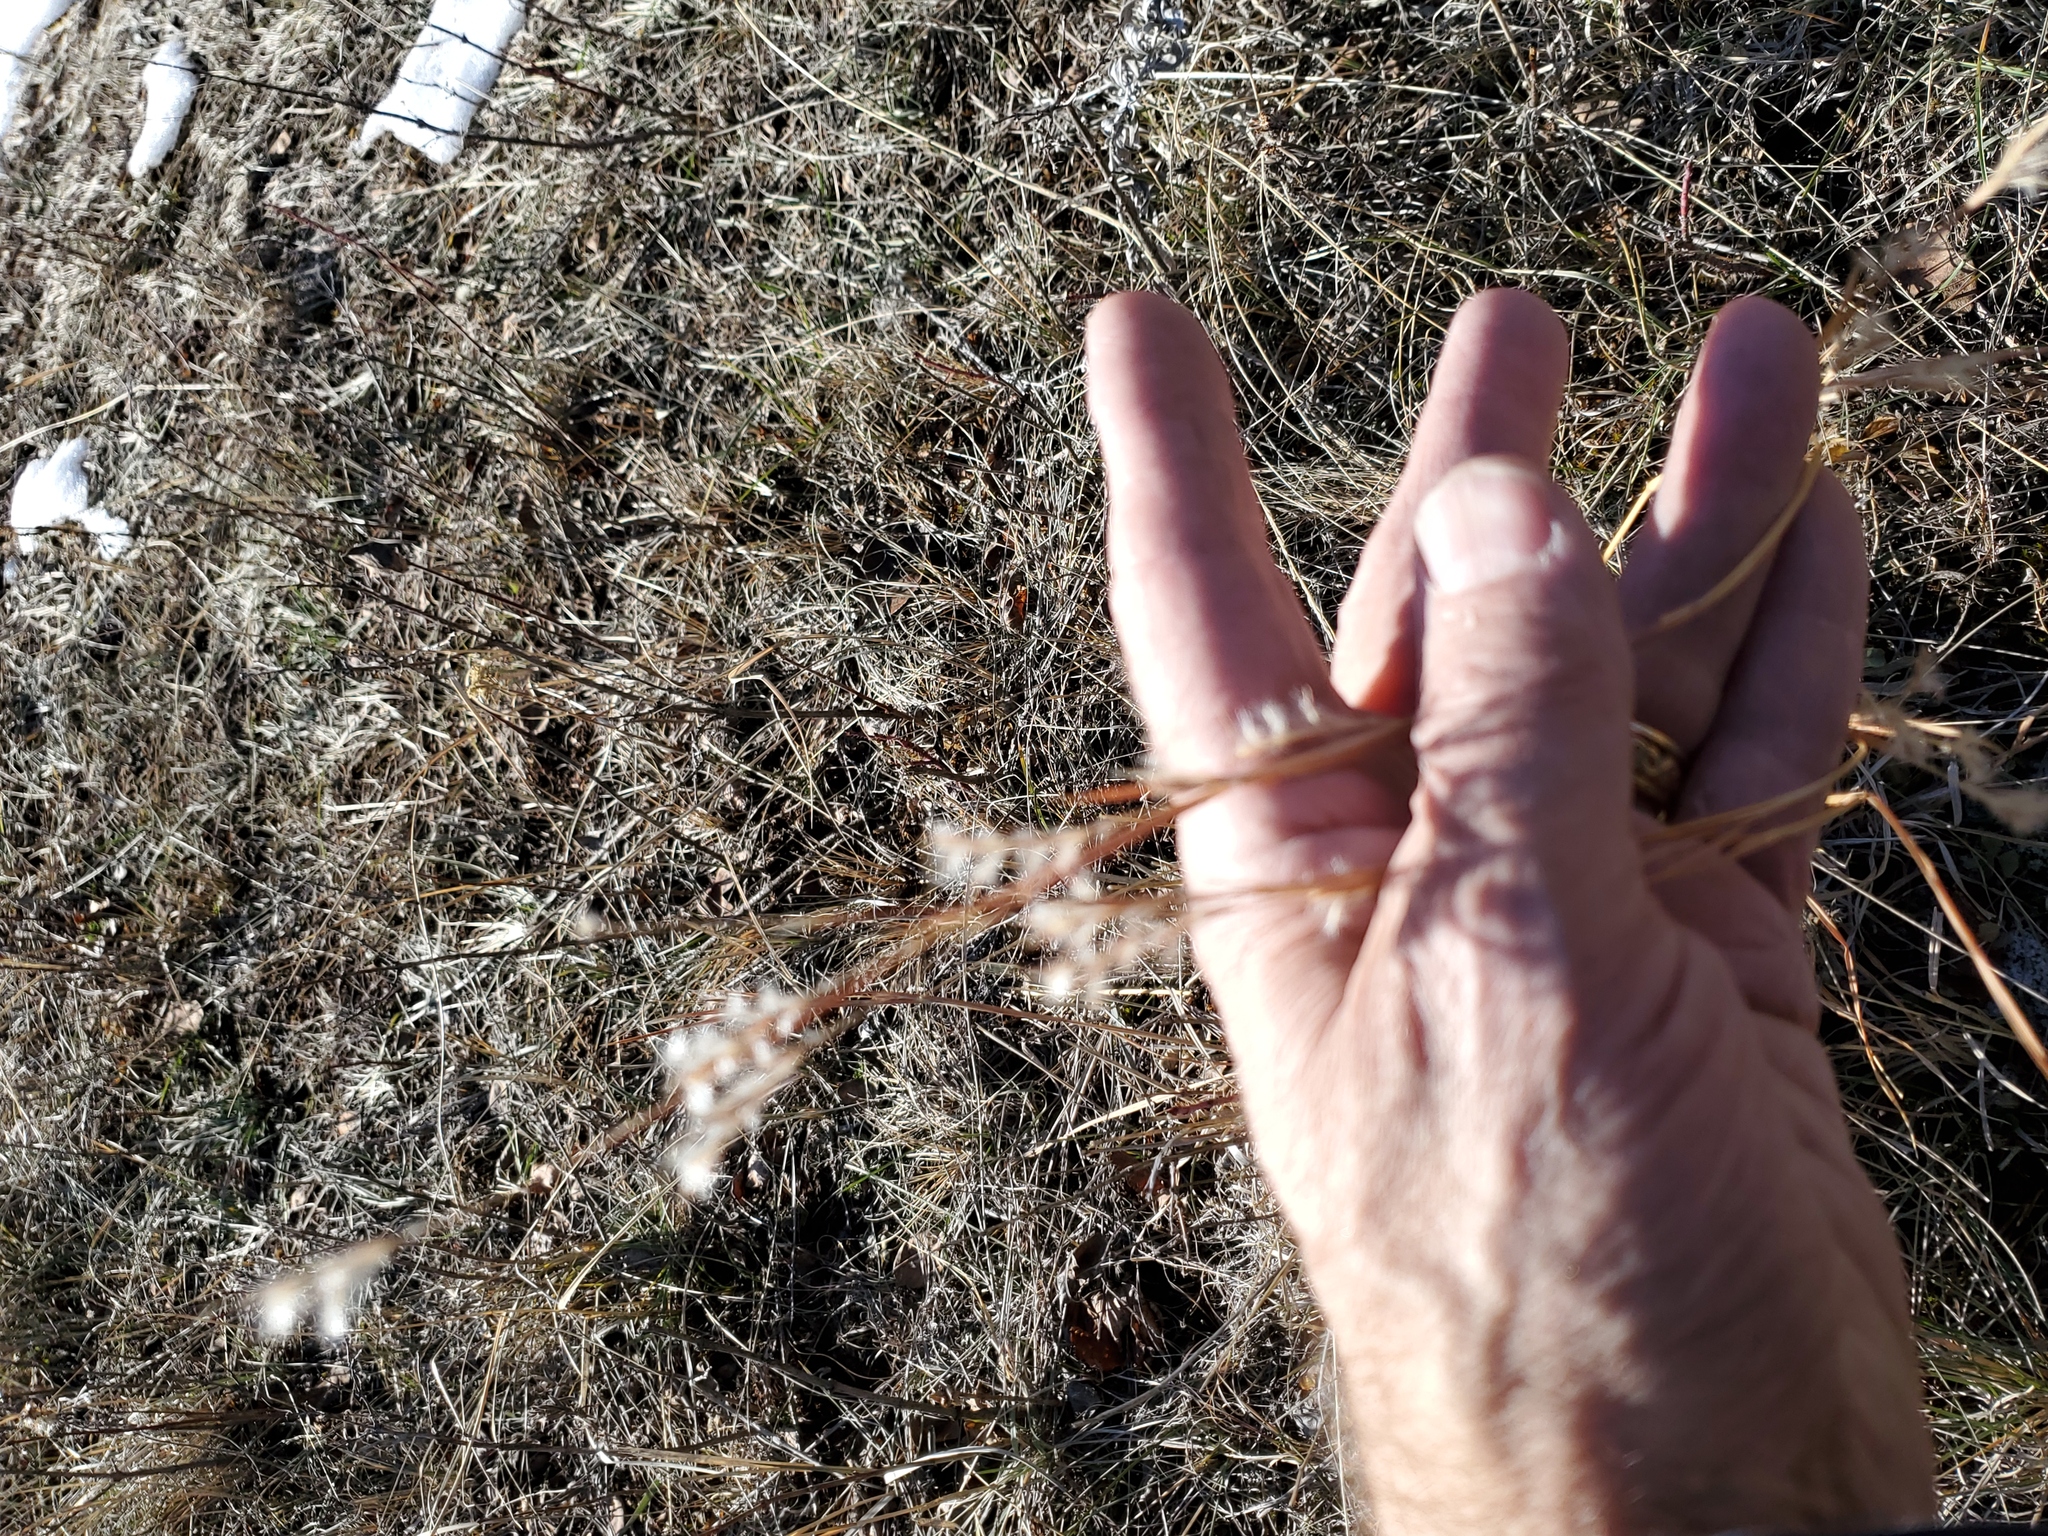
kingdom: Plantae
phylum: Tracheophyta
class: Liliopsida
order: Poales
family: Poaceae
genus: Schizachyrium
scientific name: Schizachyrium scoparium
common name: Little bluestem
